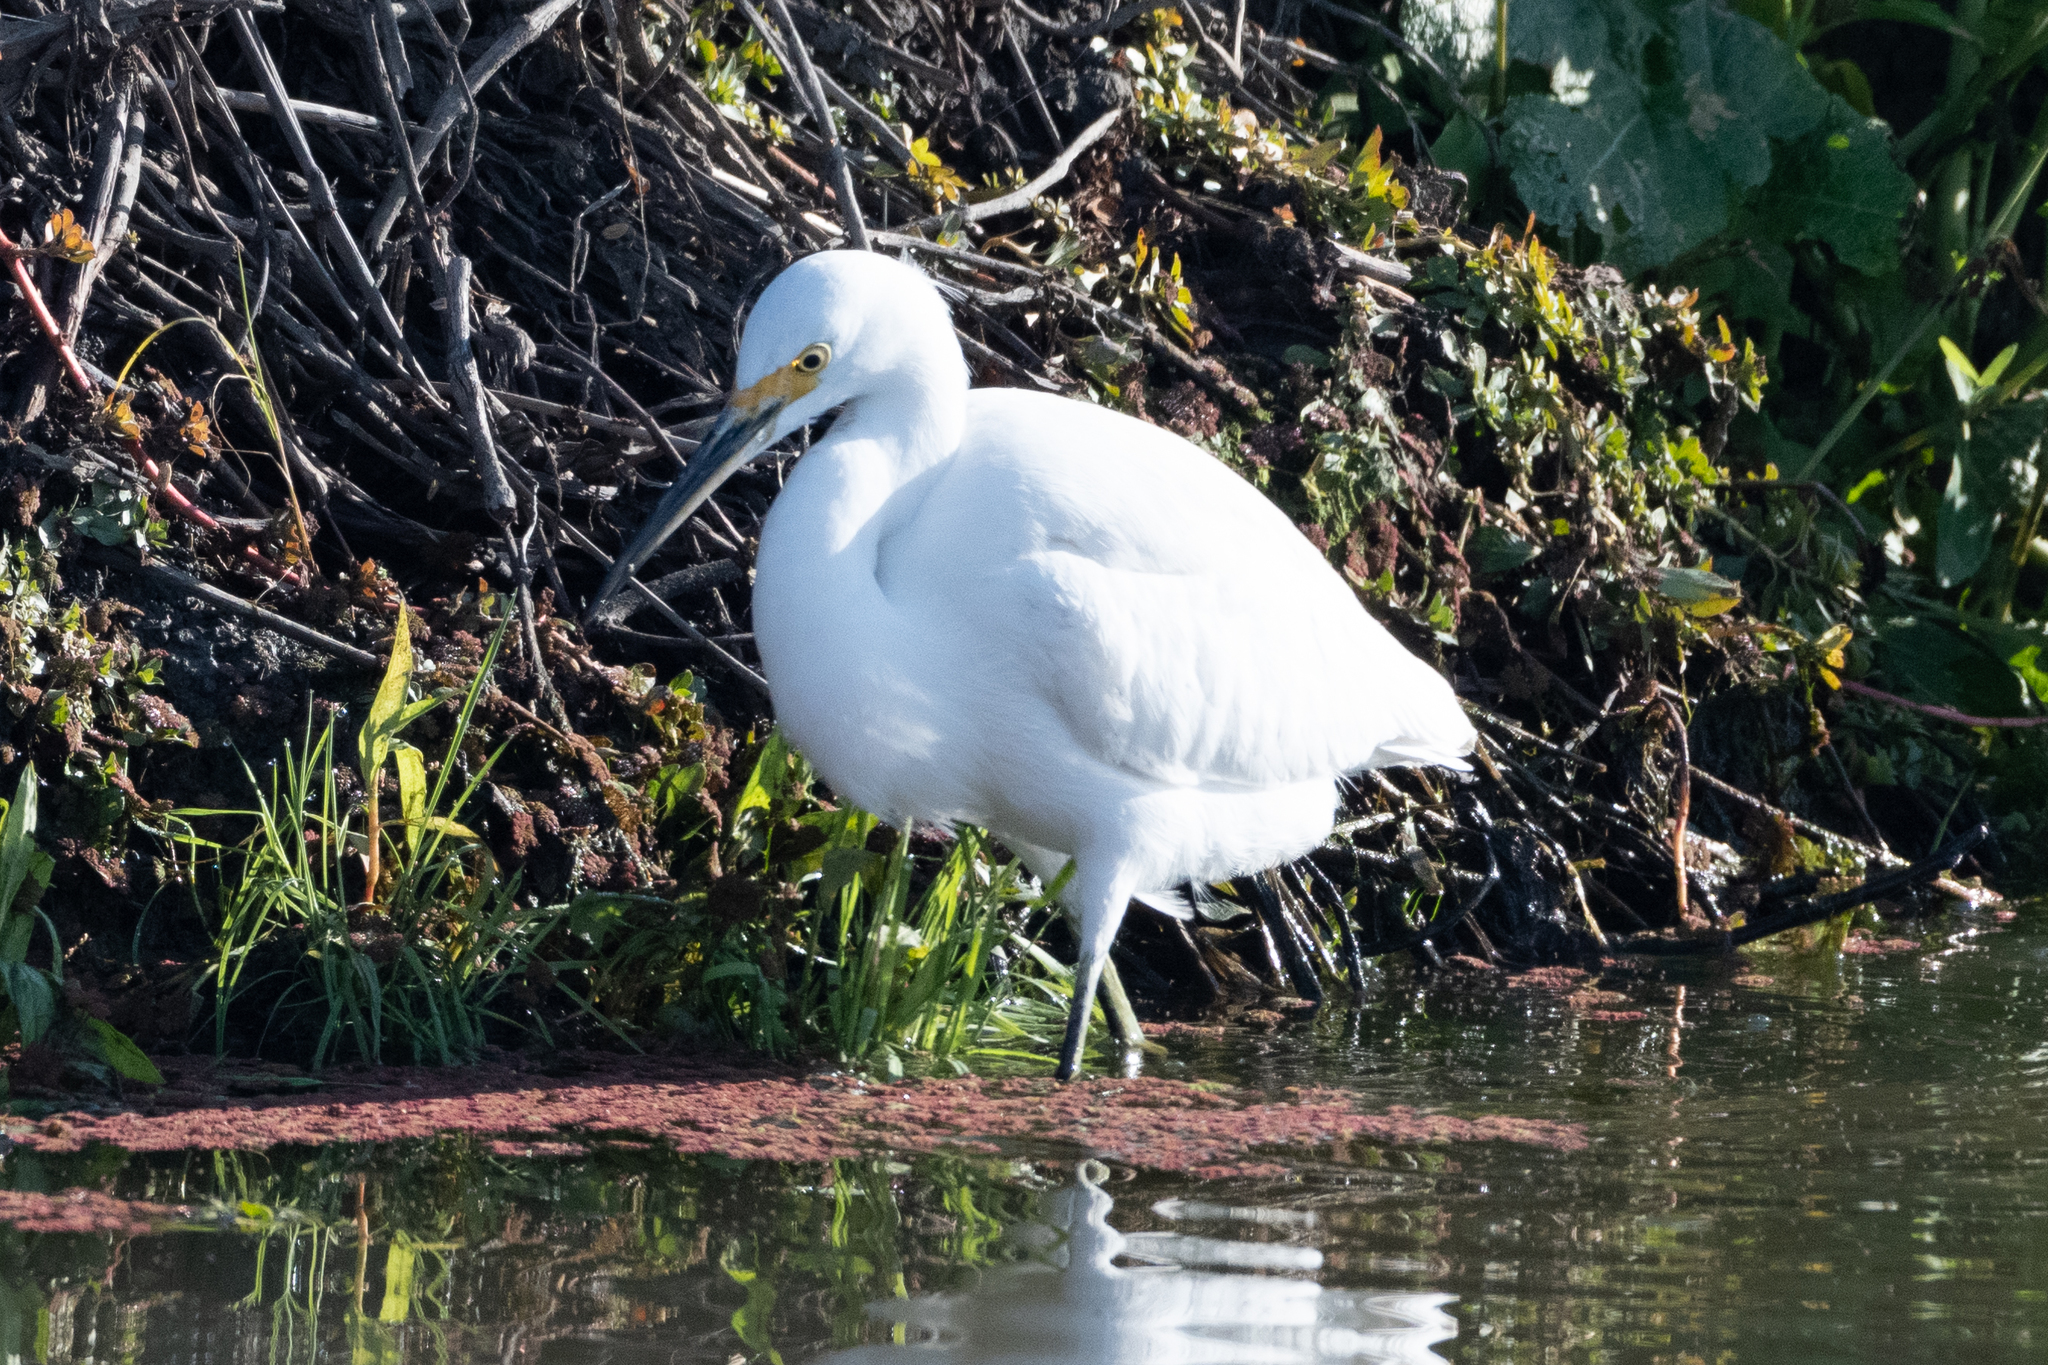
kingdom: Animalia
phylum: Chordata
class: Aves
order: Pelecaniformes
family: Ardeidae
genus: Egretta
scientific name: Egretta thula
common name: Snowy egret
